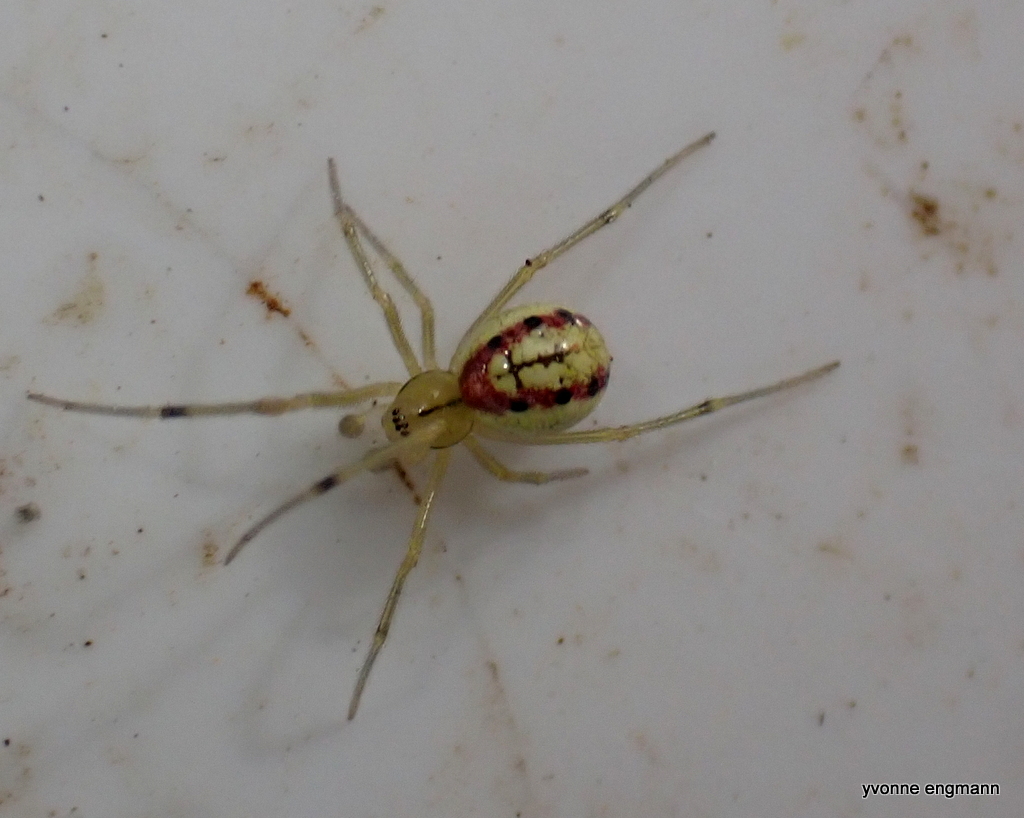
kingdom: Animalia
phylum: Arthropoda
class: Arachnida
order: Araneae
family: Theridiidae
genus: Enoplognatha
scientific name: Enoplognatha ovata
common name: Common candy-striped spider
